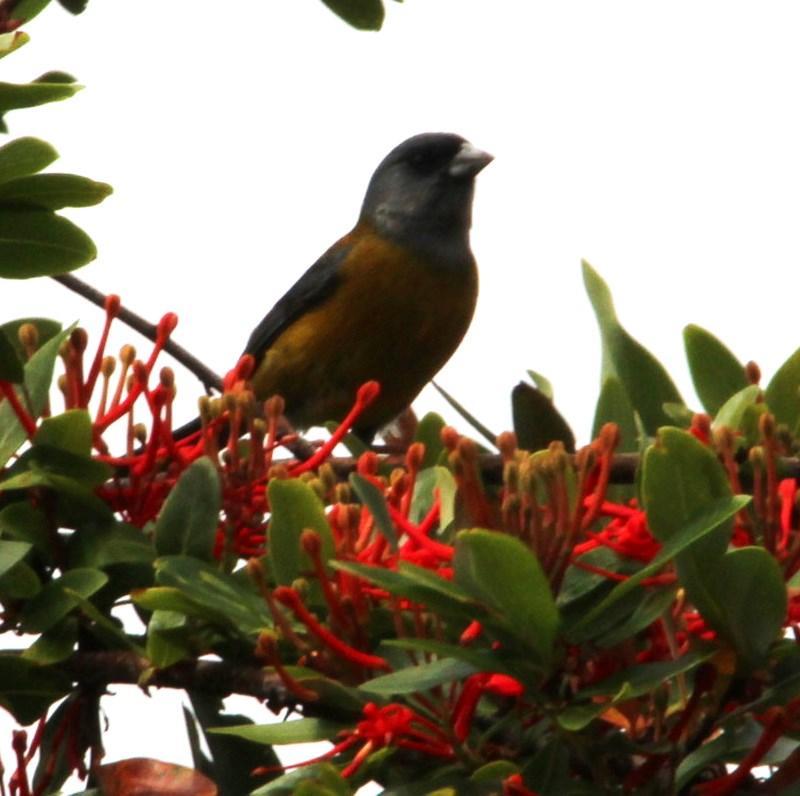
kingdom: Animalia
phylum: Chordata
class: Aves
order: Passeriformes
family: Thraupidae
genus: Phrygilus
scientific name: Phrygilus patagonicus
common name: Patagonian sierra finch
